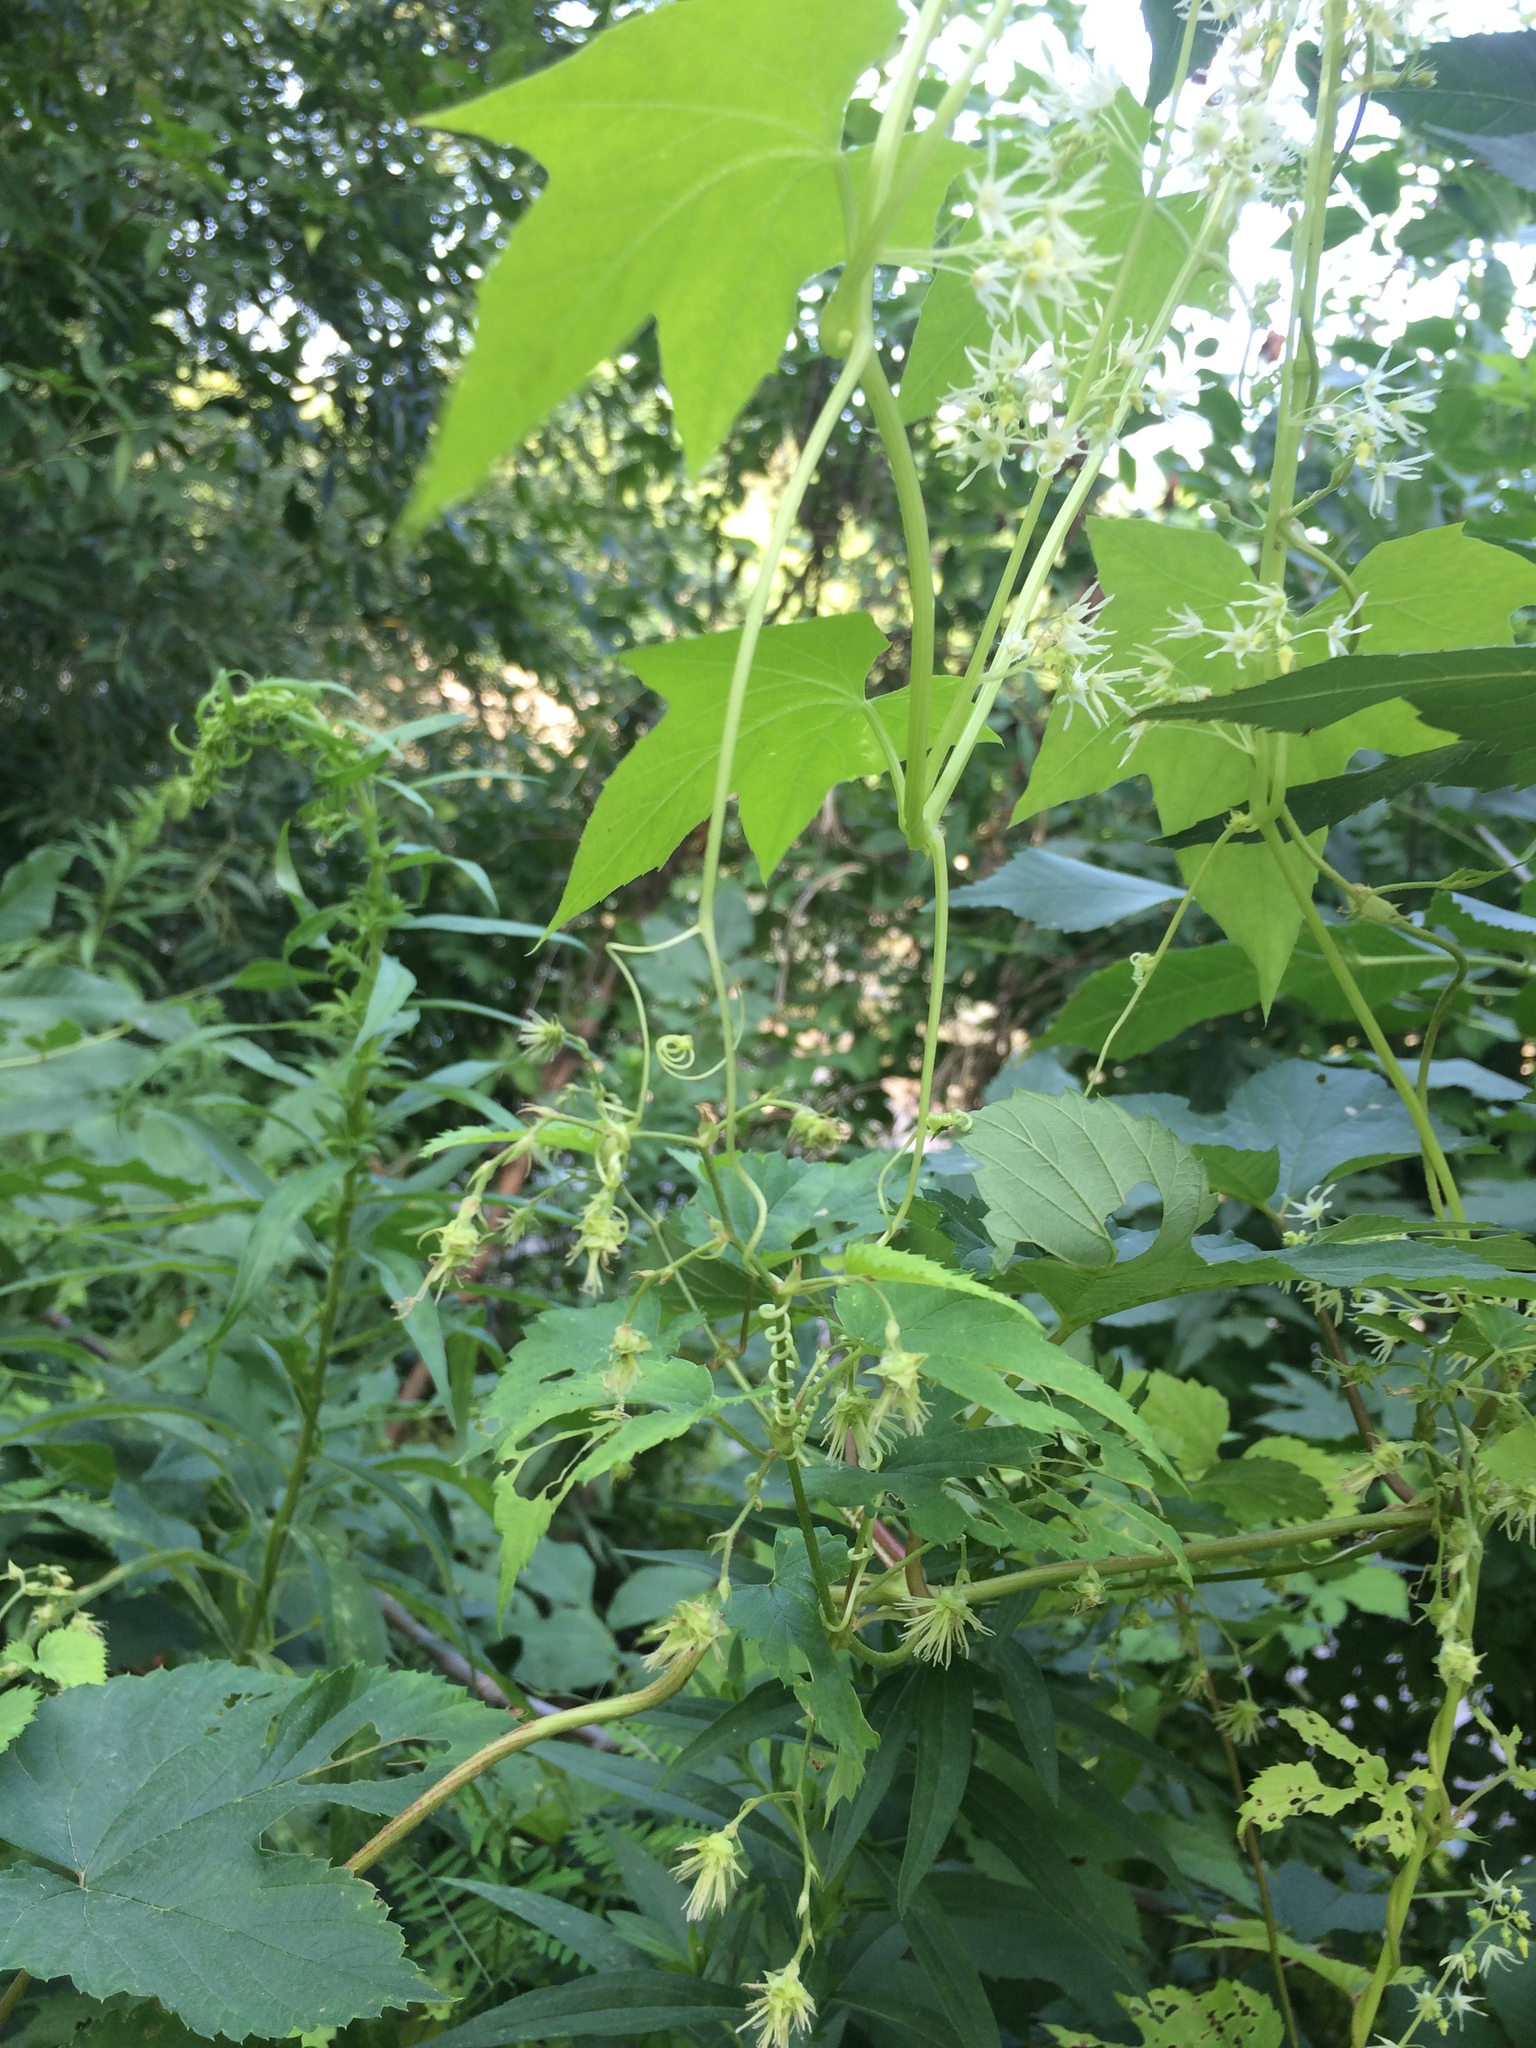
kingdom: Plantae
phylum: Tracheophyta
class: Magnoliopsida
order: Cucurbitales
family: Cucurbitaceae
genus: Echinocystis
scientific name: Echinocystis lobata
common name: Wild cucumber
